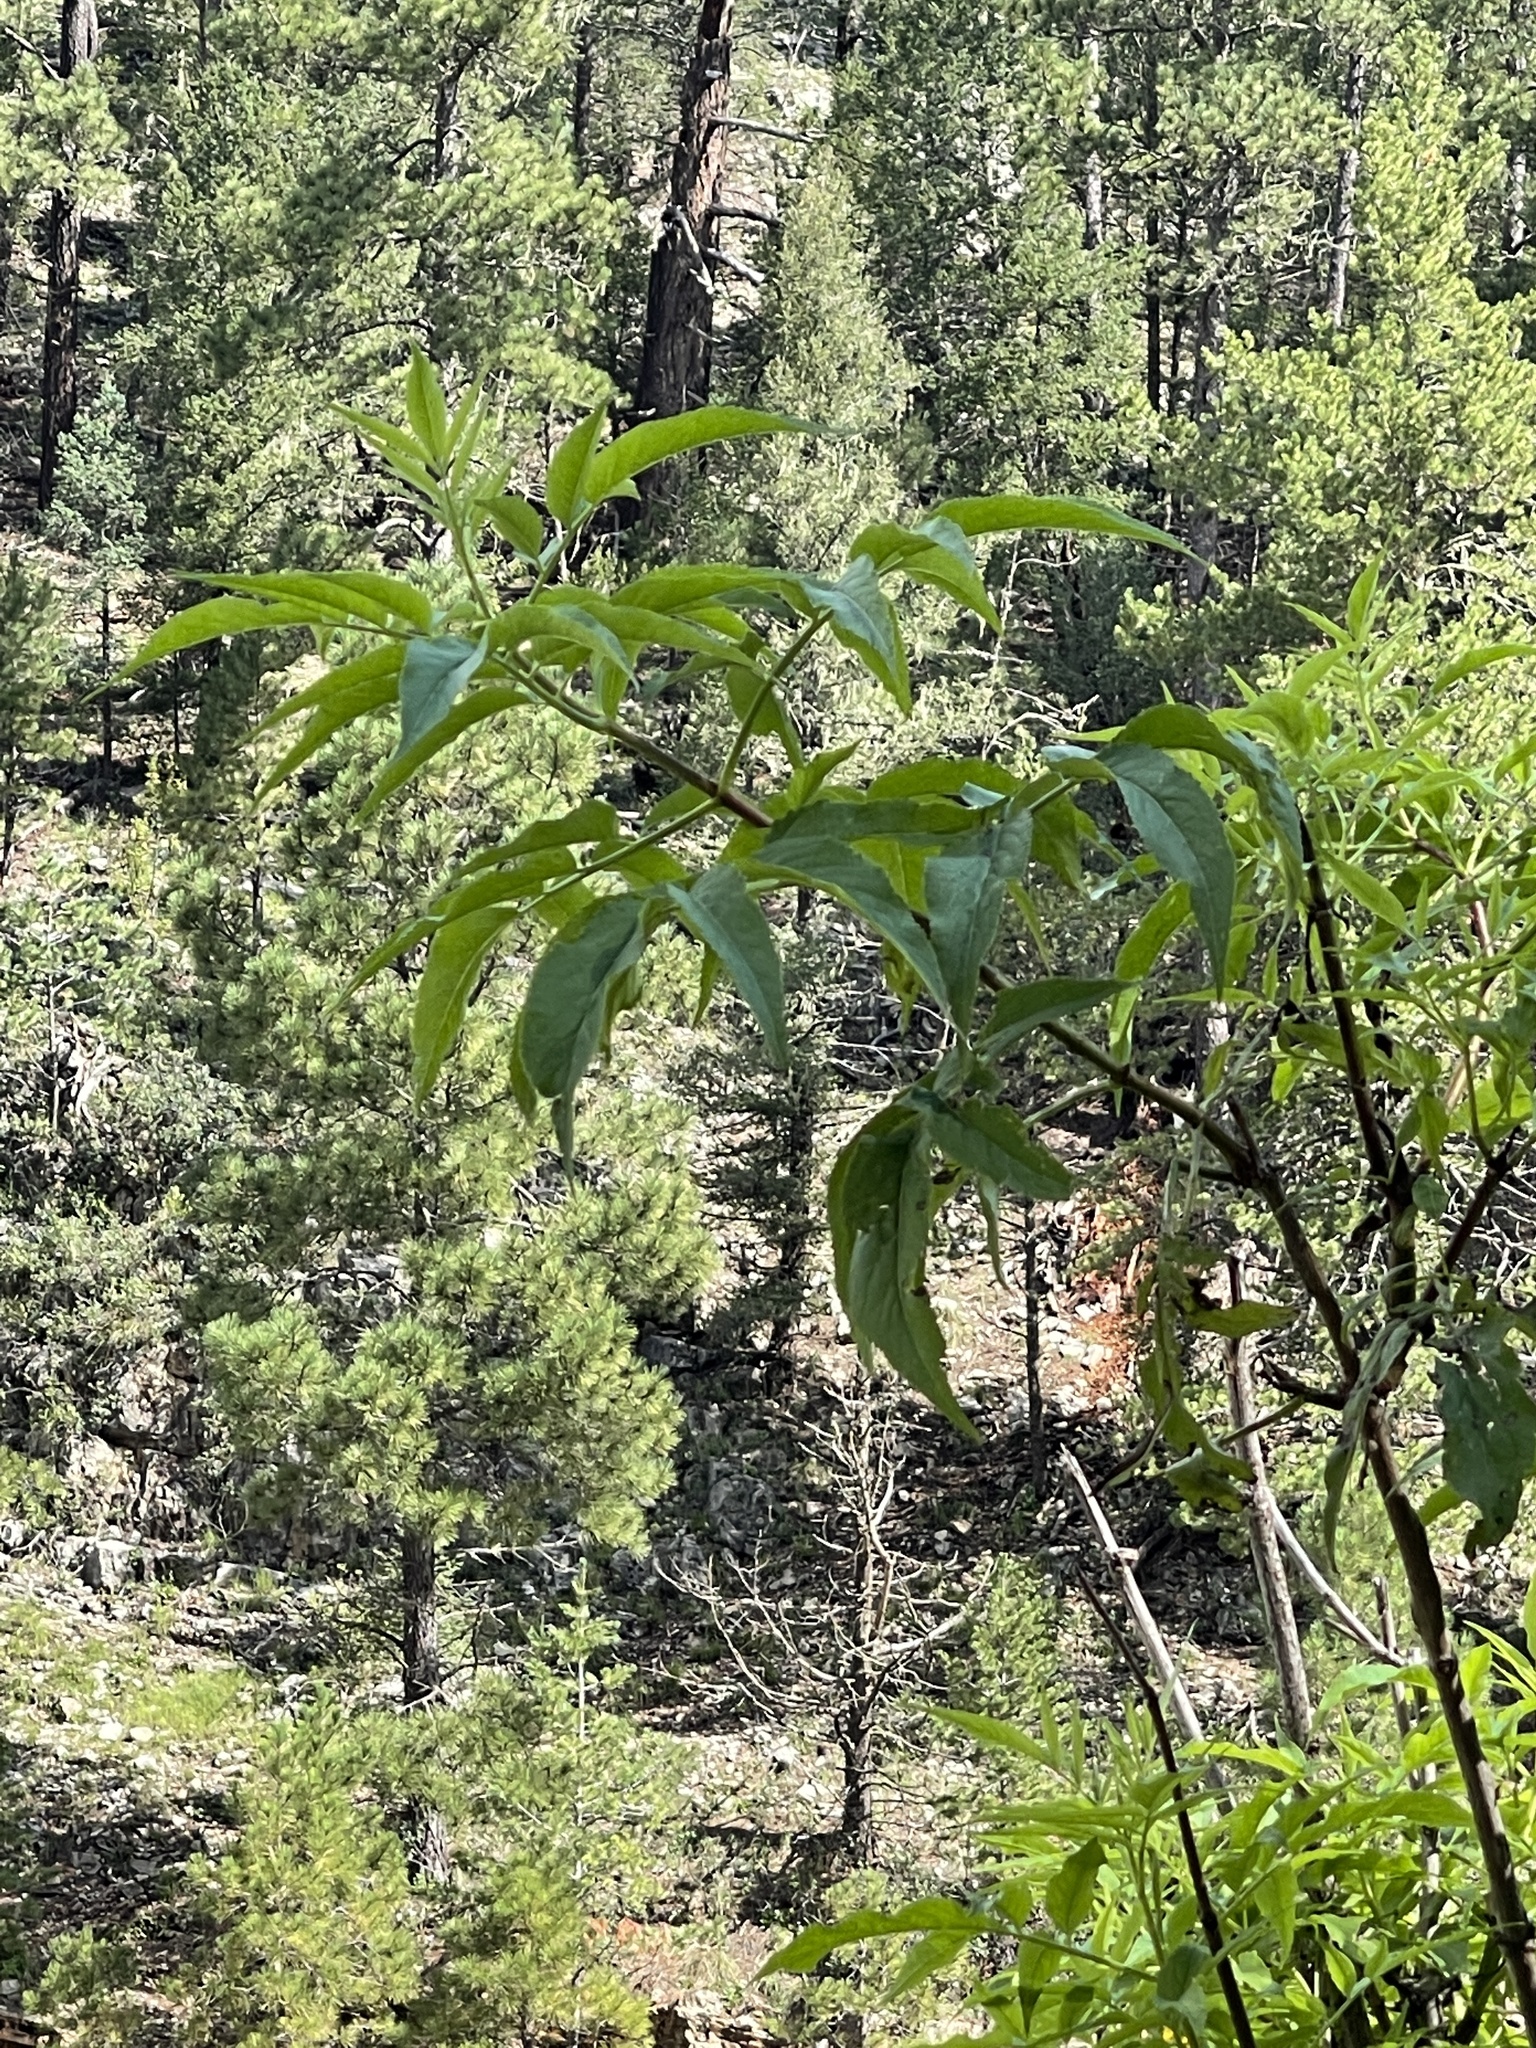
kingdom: Plantae
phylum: Tracheophyta
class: Magnoliopsida
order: Dipsacales
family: Viburnaceae
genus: Sambucus
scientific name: Sambucus cerulea
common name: Blue elder
